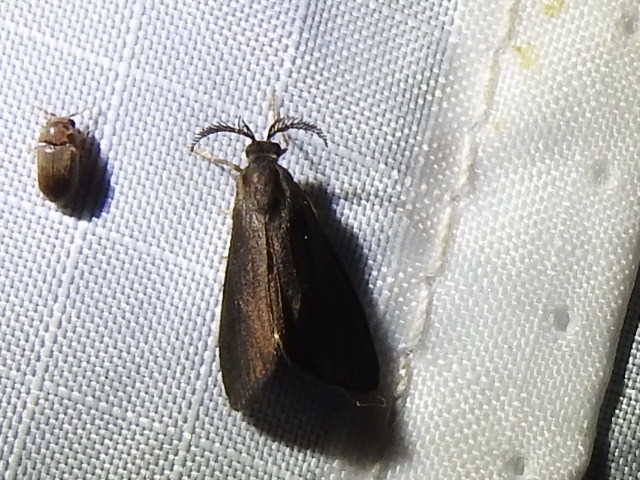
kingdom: Animalia
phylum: Arthropoda
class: Insecta
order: Lepidoptera
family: Psychidae
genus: Cryptothelea
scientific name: Cryptothelea gloverii
